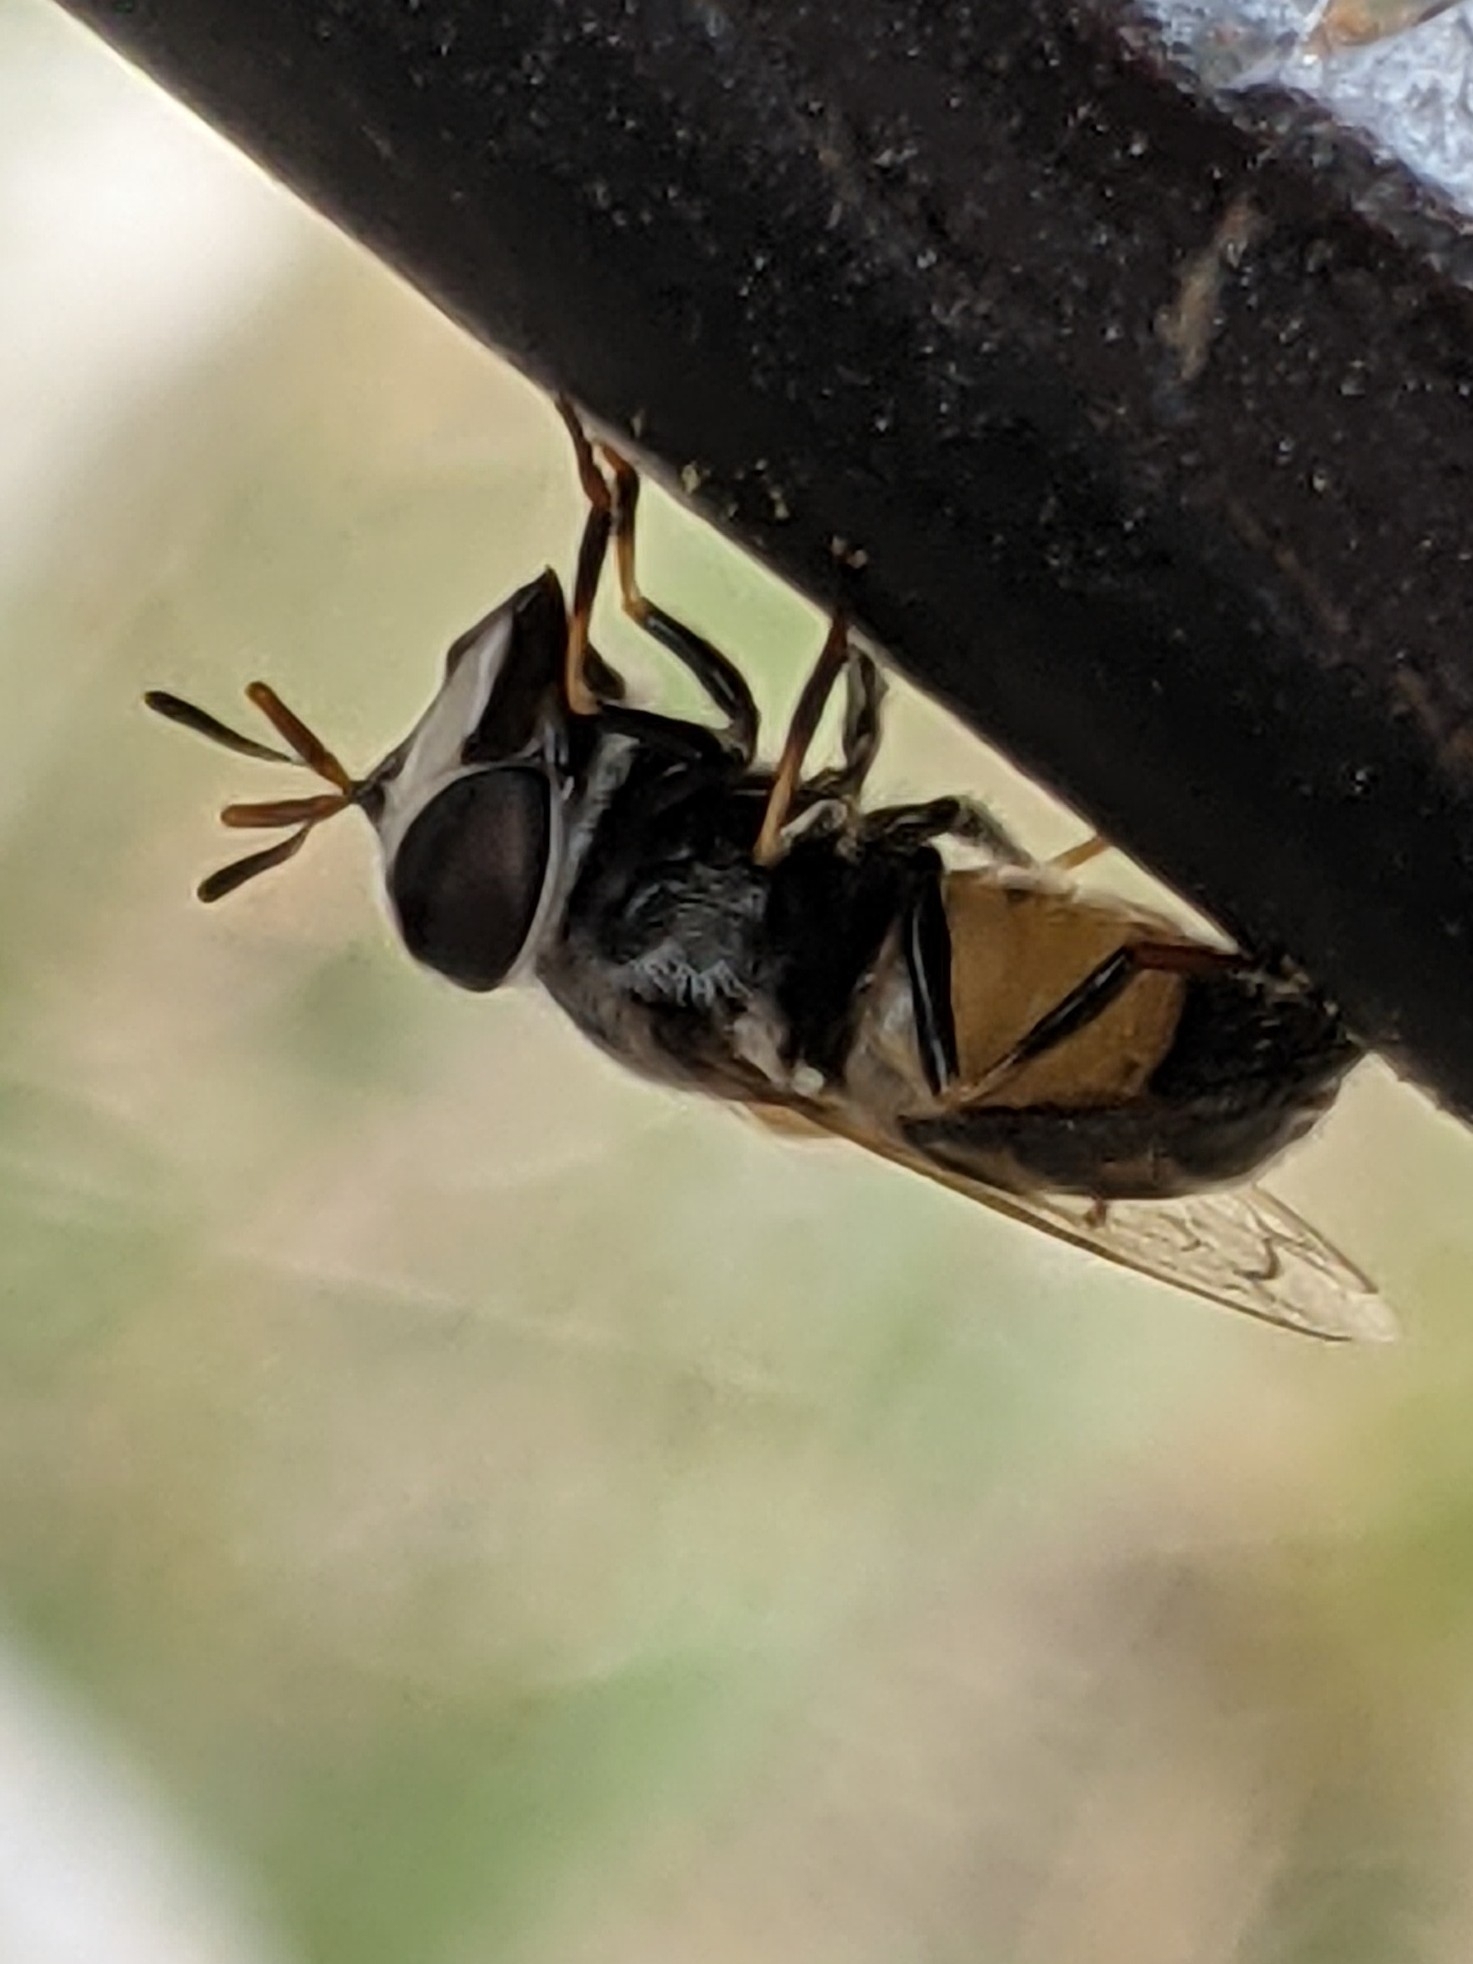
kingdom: Animalia
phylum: Arthropoda
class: Insecta
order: Diptera
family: Syrphidae
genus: Copestylum
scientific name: Copestylum marginatum
